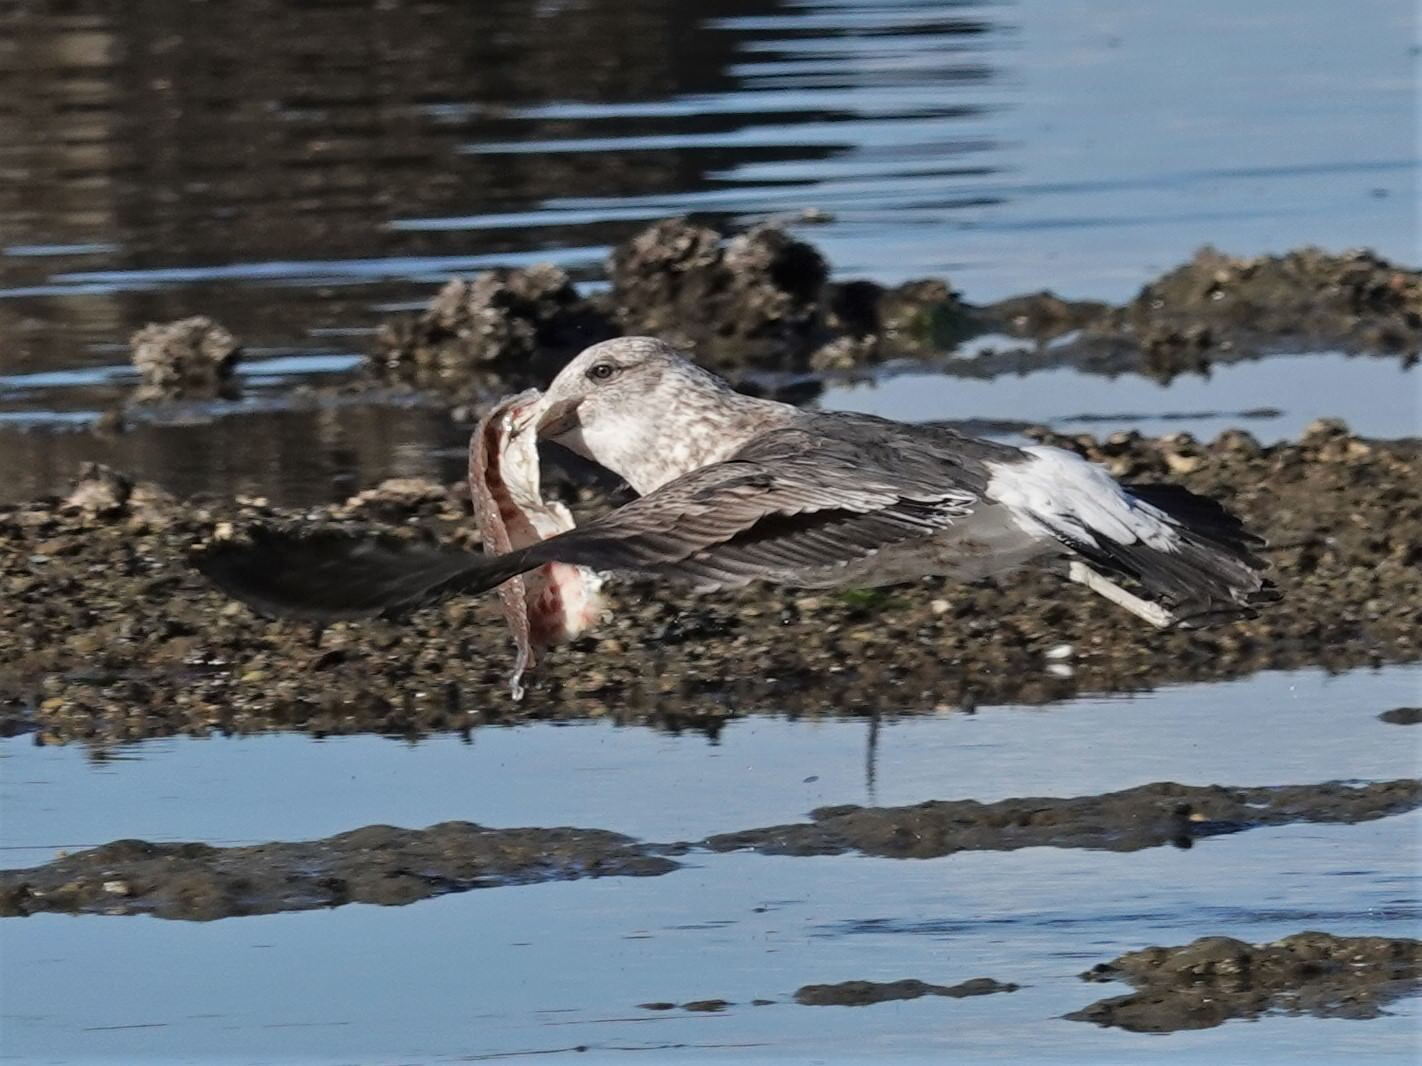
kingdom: Animalia
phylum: Chordata
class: Aves
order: Charadriiformes
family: Laridae
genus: Larus
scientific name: Larus dominicanus
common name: Kelp gull
